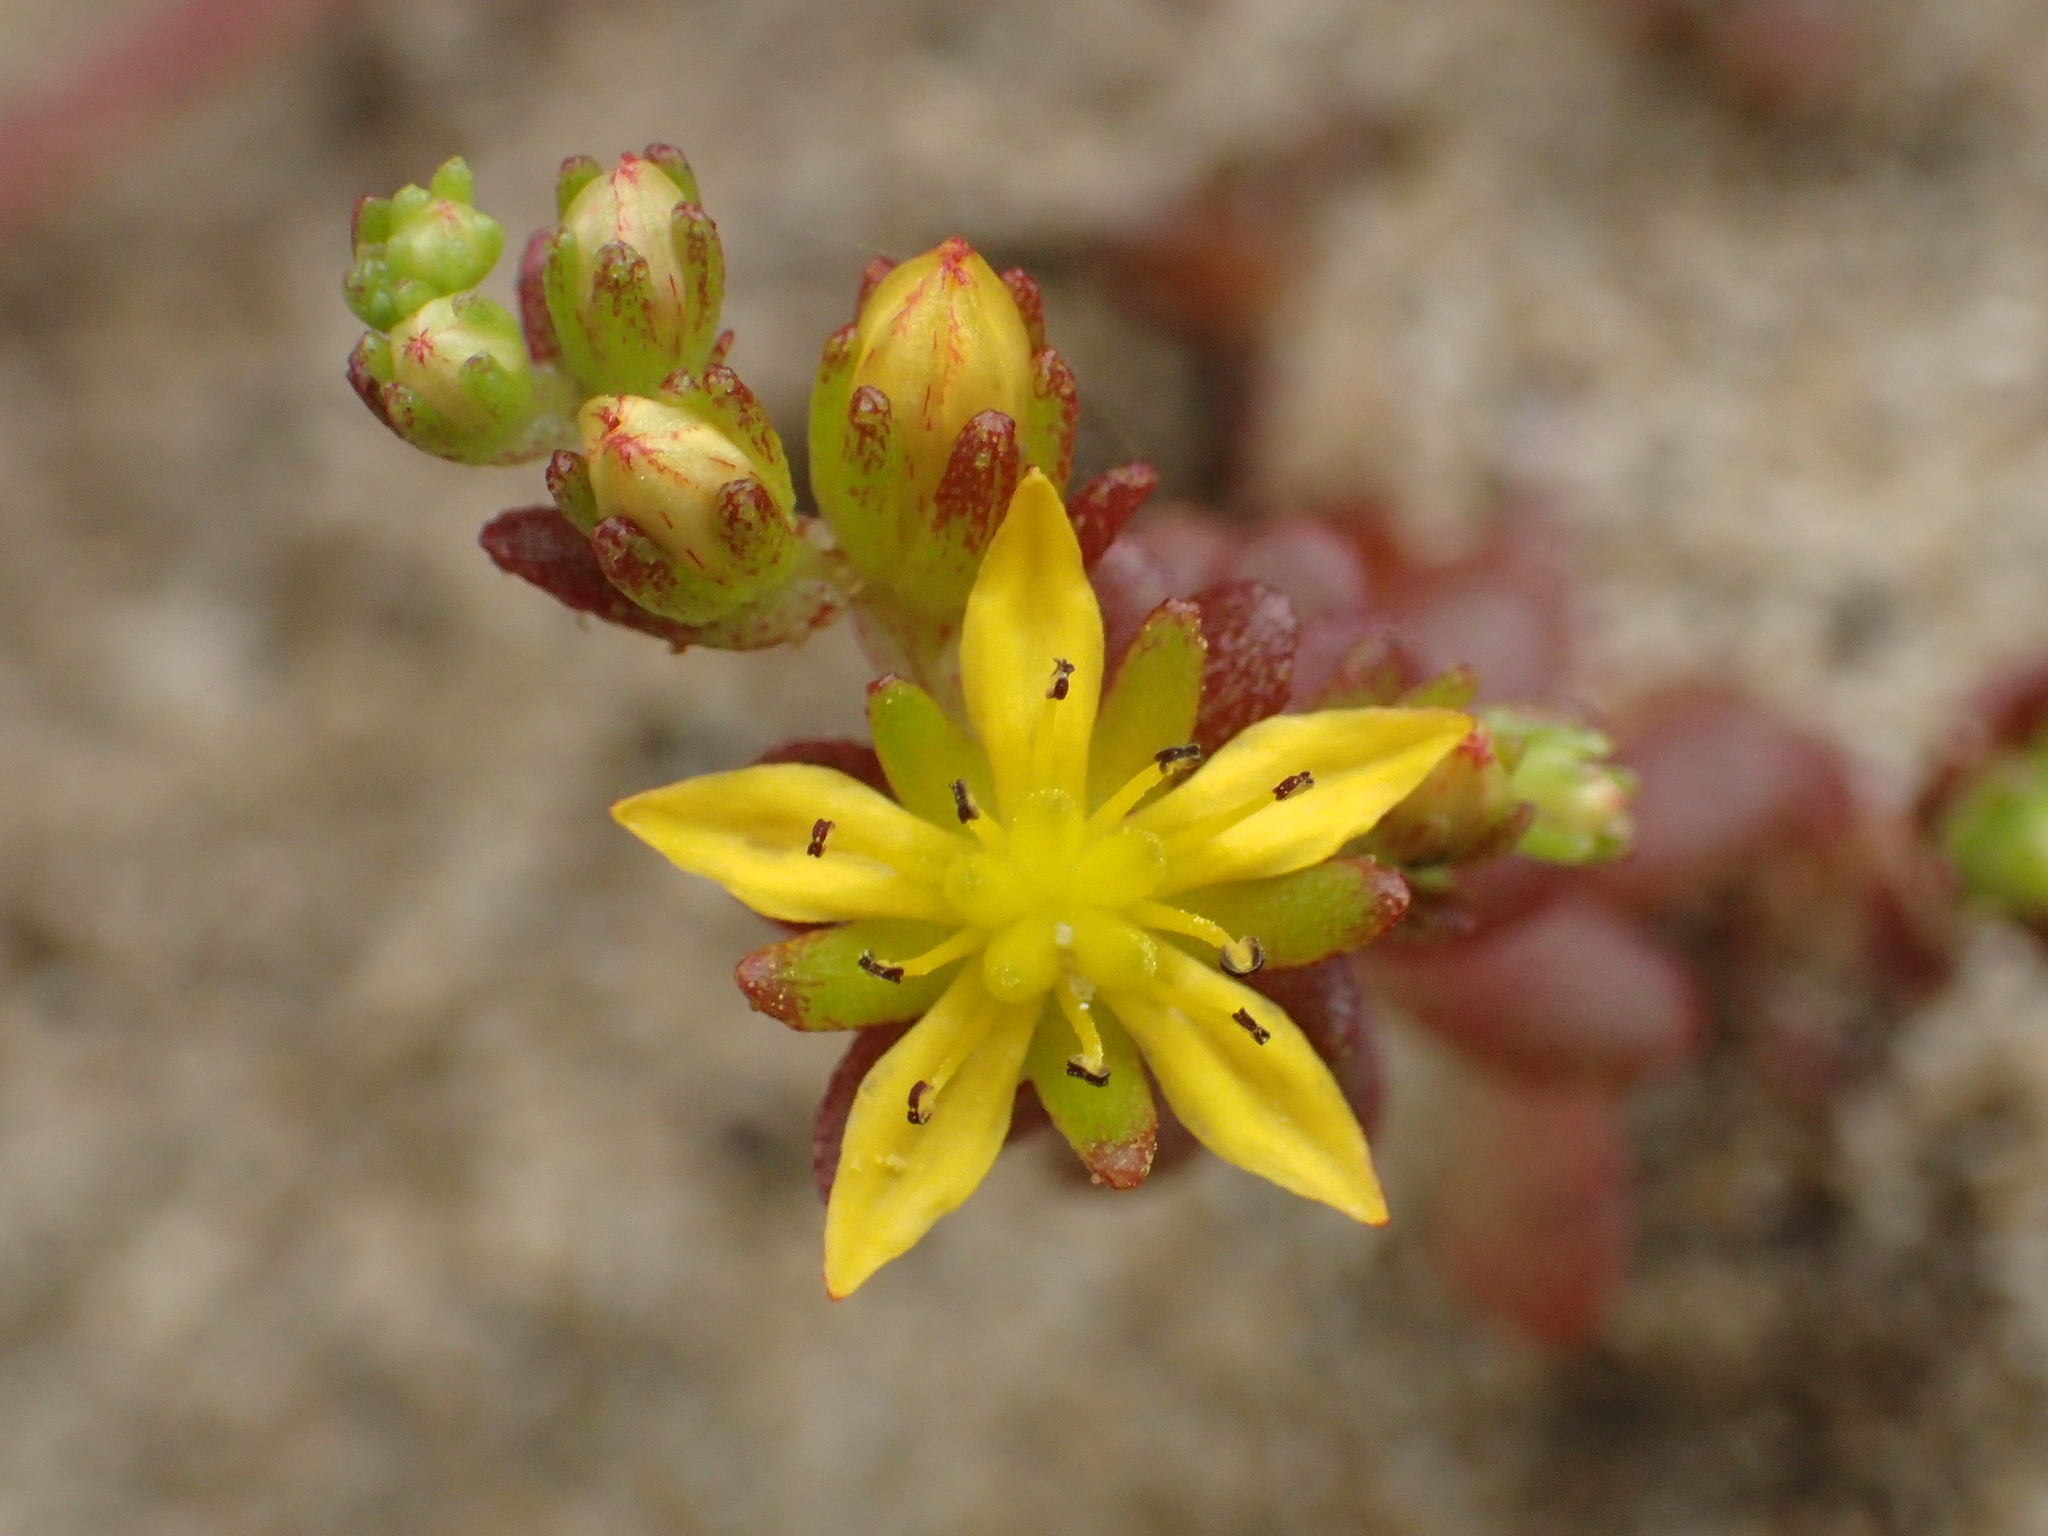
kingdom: Plantae
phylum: Tracheophyta
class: Magnoliopsida
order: Saxifragales
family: Crassulaceae
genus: Sedum
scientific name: Sedum japonicum
